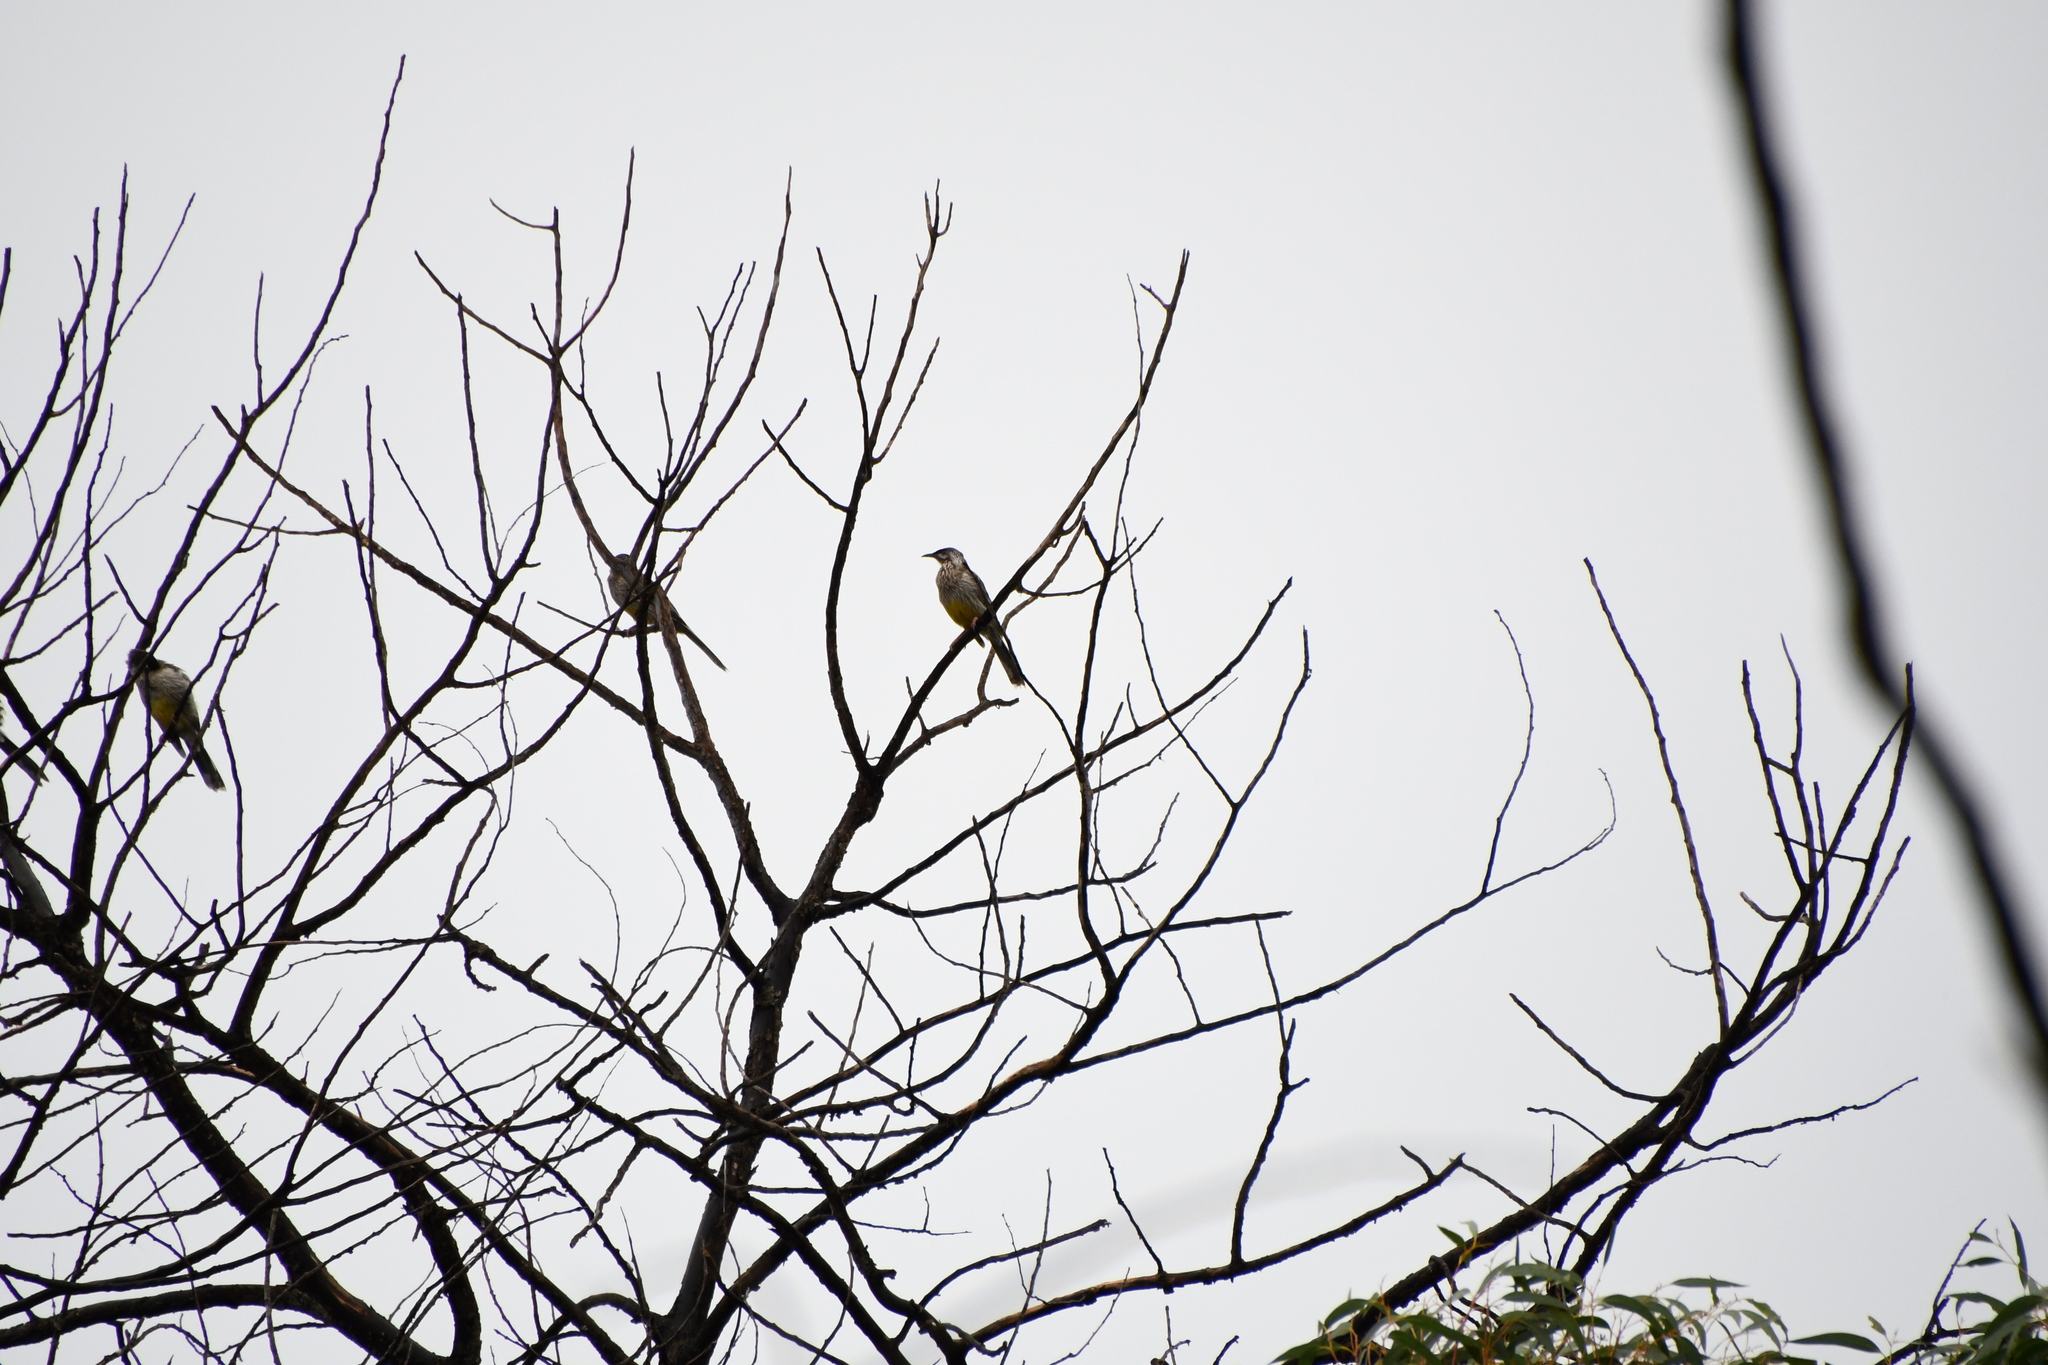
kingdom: Animalia
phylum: Chordata
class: Aves
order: Passeriformes
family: Meliphagidae
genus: Anthochaera
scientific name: Anthochaera carunculata
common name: Red wattlebird
